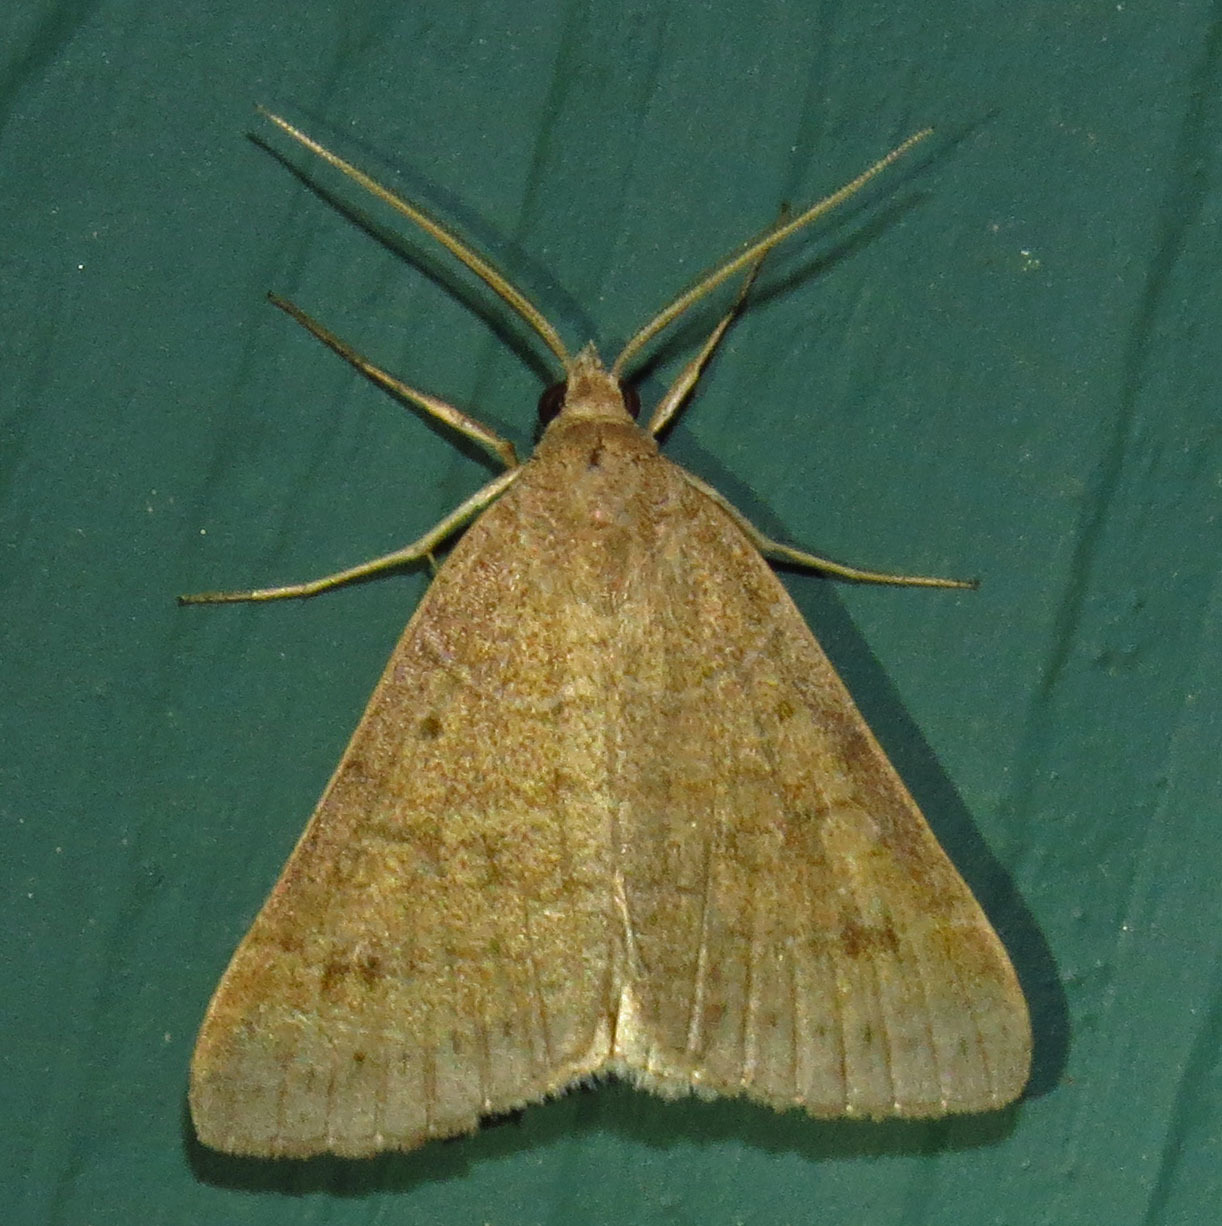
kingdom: Animalia
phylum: Arthropoda
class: Insecta
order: Lepidoptera
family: Erebidae
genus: Caenurgia
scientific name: Caenurgia chloropha
